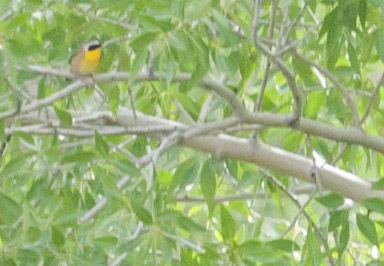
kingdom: Animalia
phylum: Chordata
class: Aves
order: Passeriformes
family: Parulidae
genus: Geothlypis
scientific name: Geothlypis trichas
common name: Common yellowthroat
